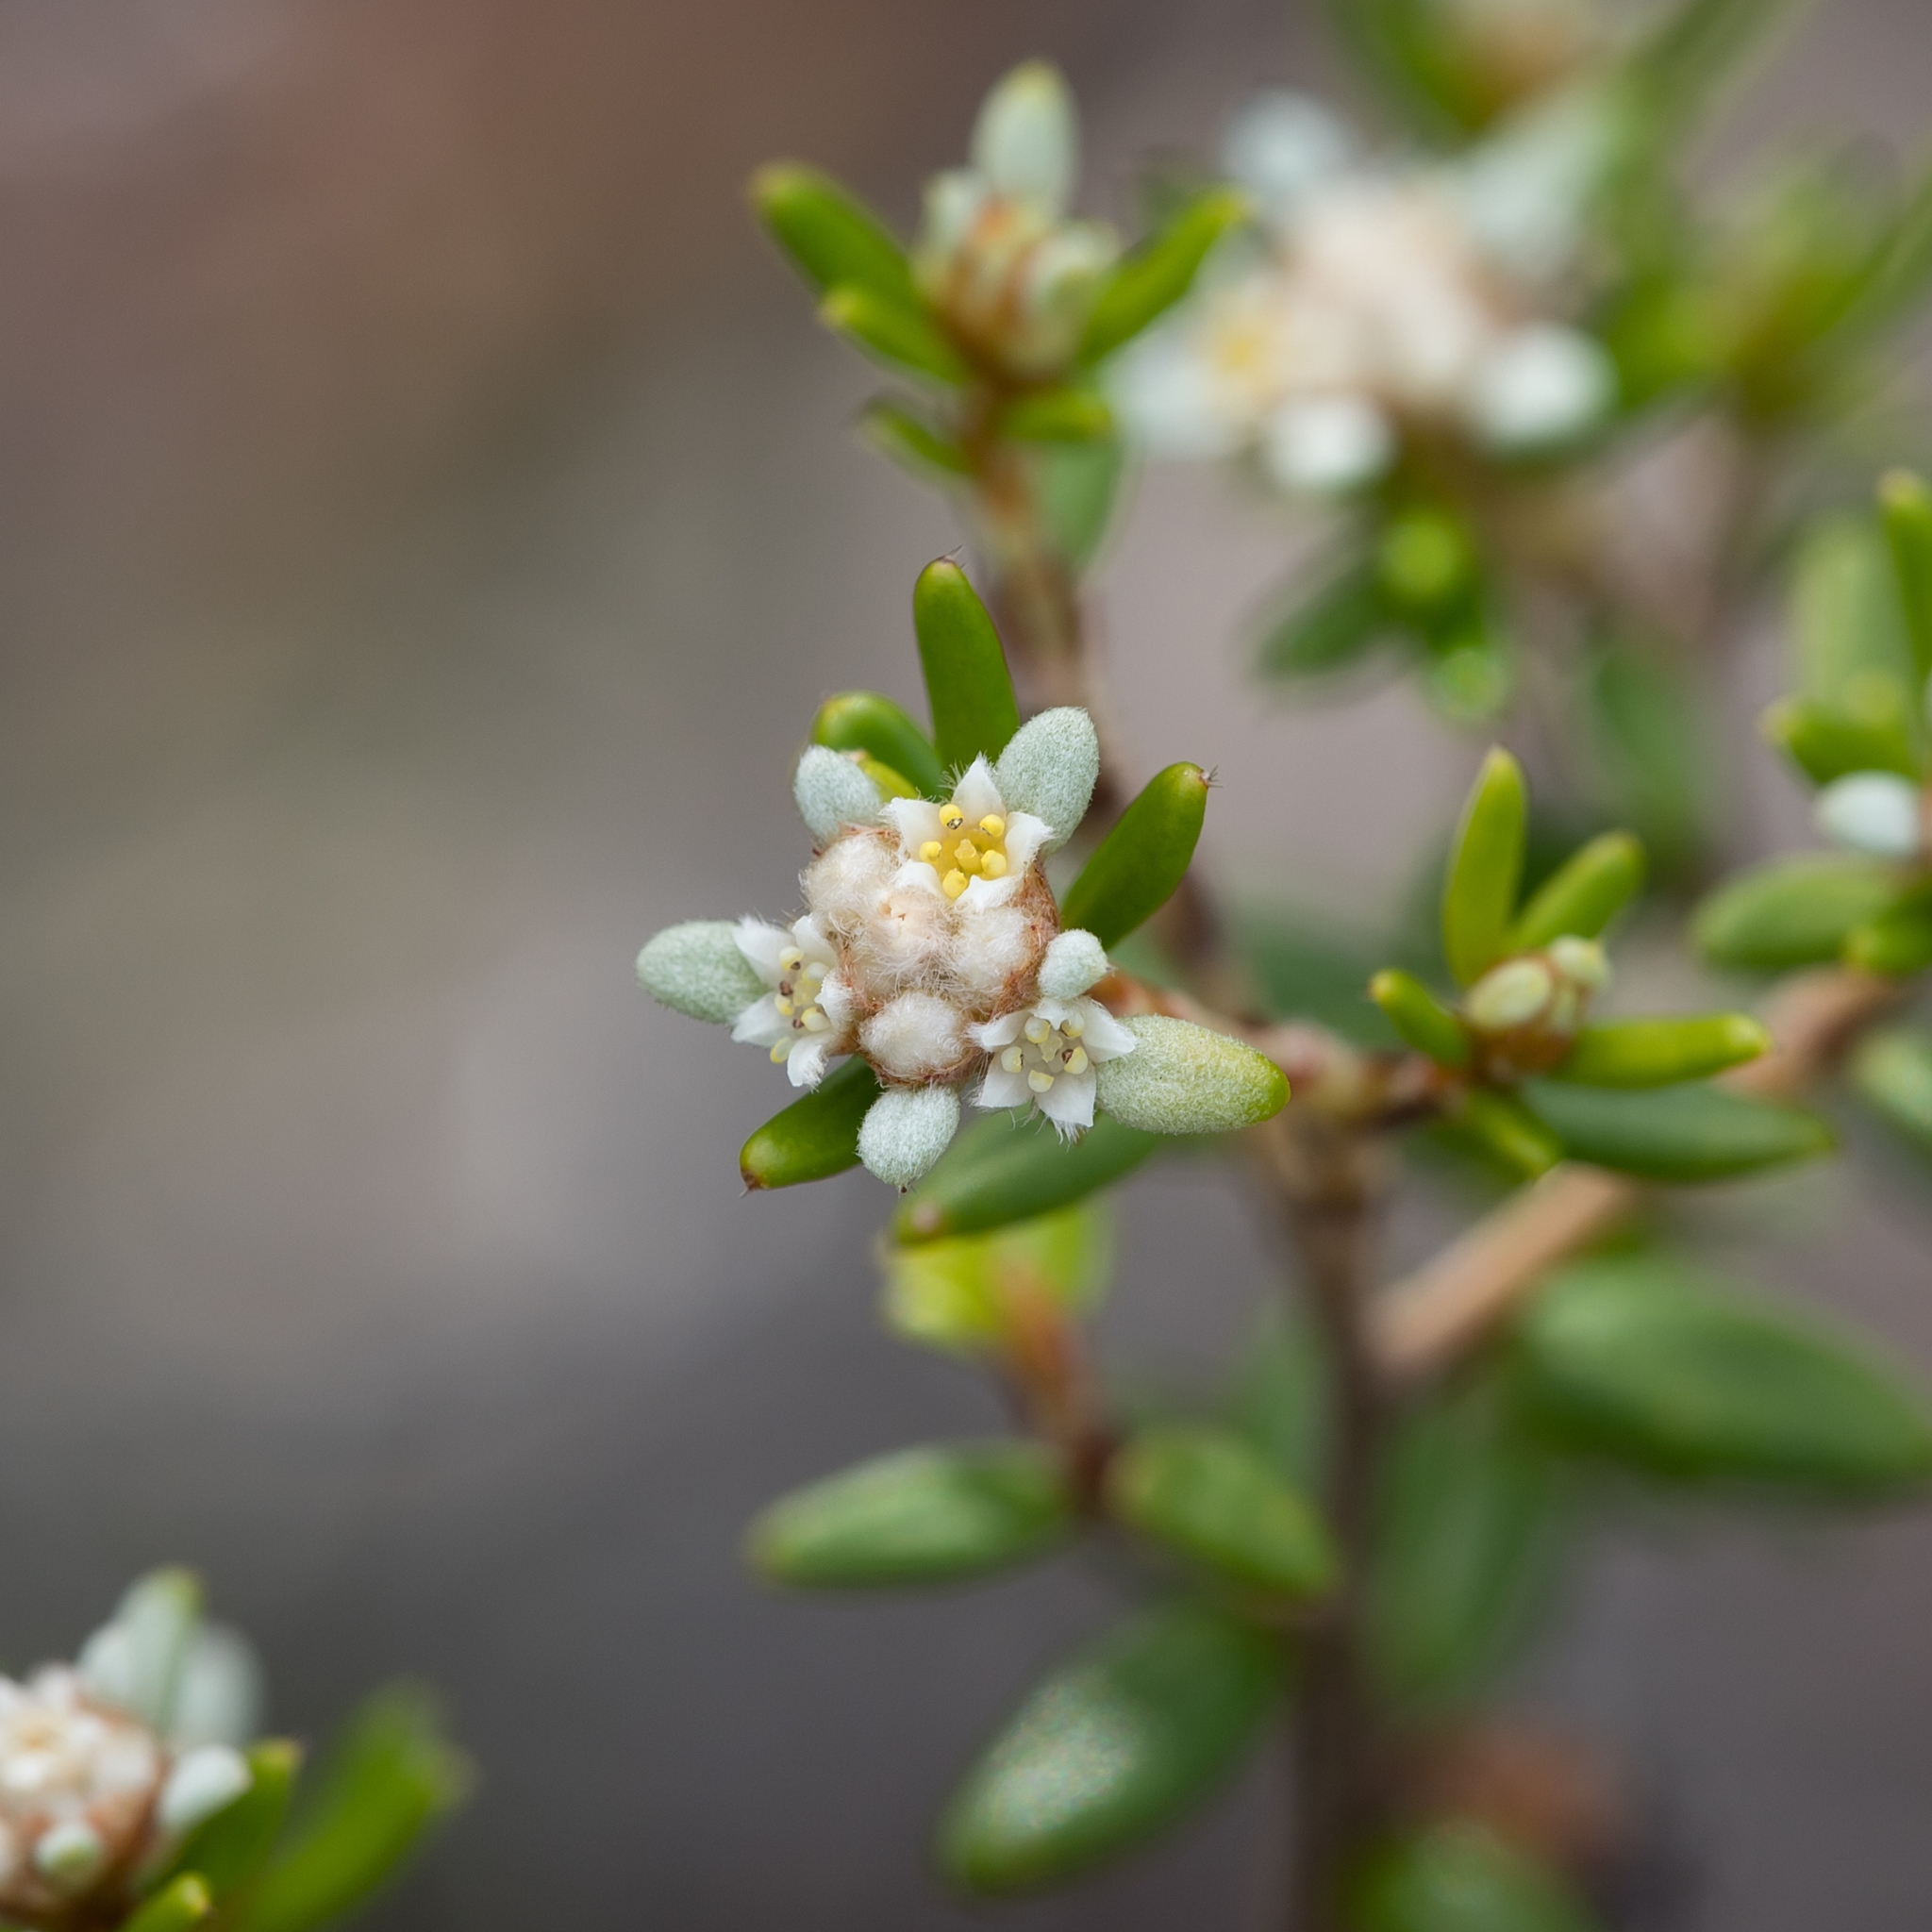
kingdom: Plantae
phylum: Tracheophyta
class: Magnoliopsida
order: Rosales
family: Rhamnaceae
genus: Spyridium
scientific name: Spyridium phylicoides
